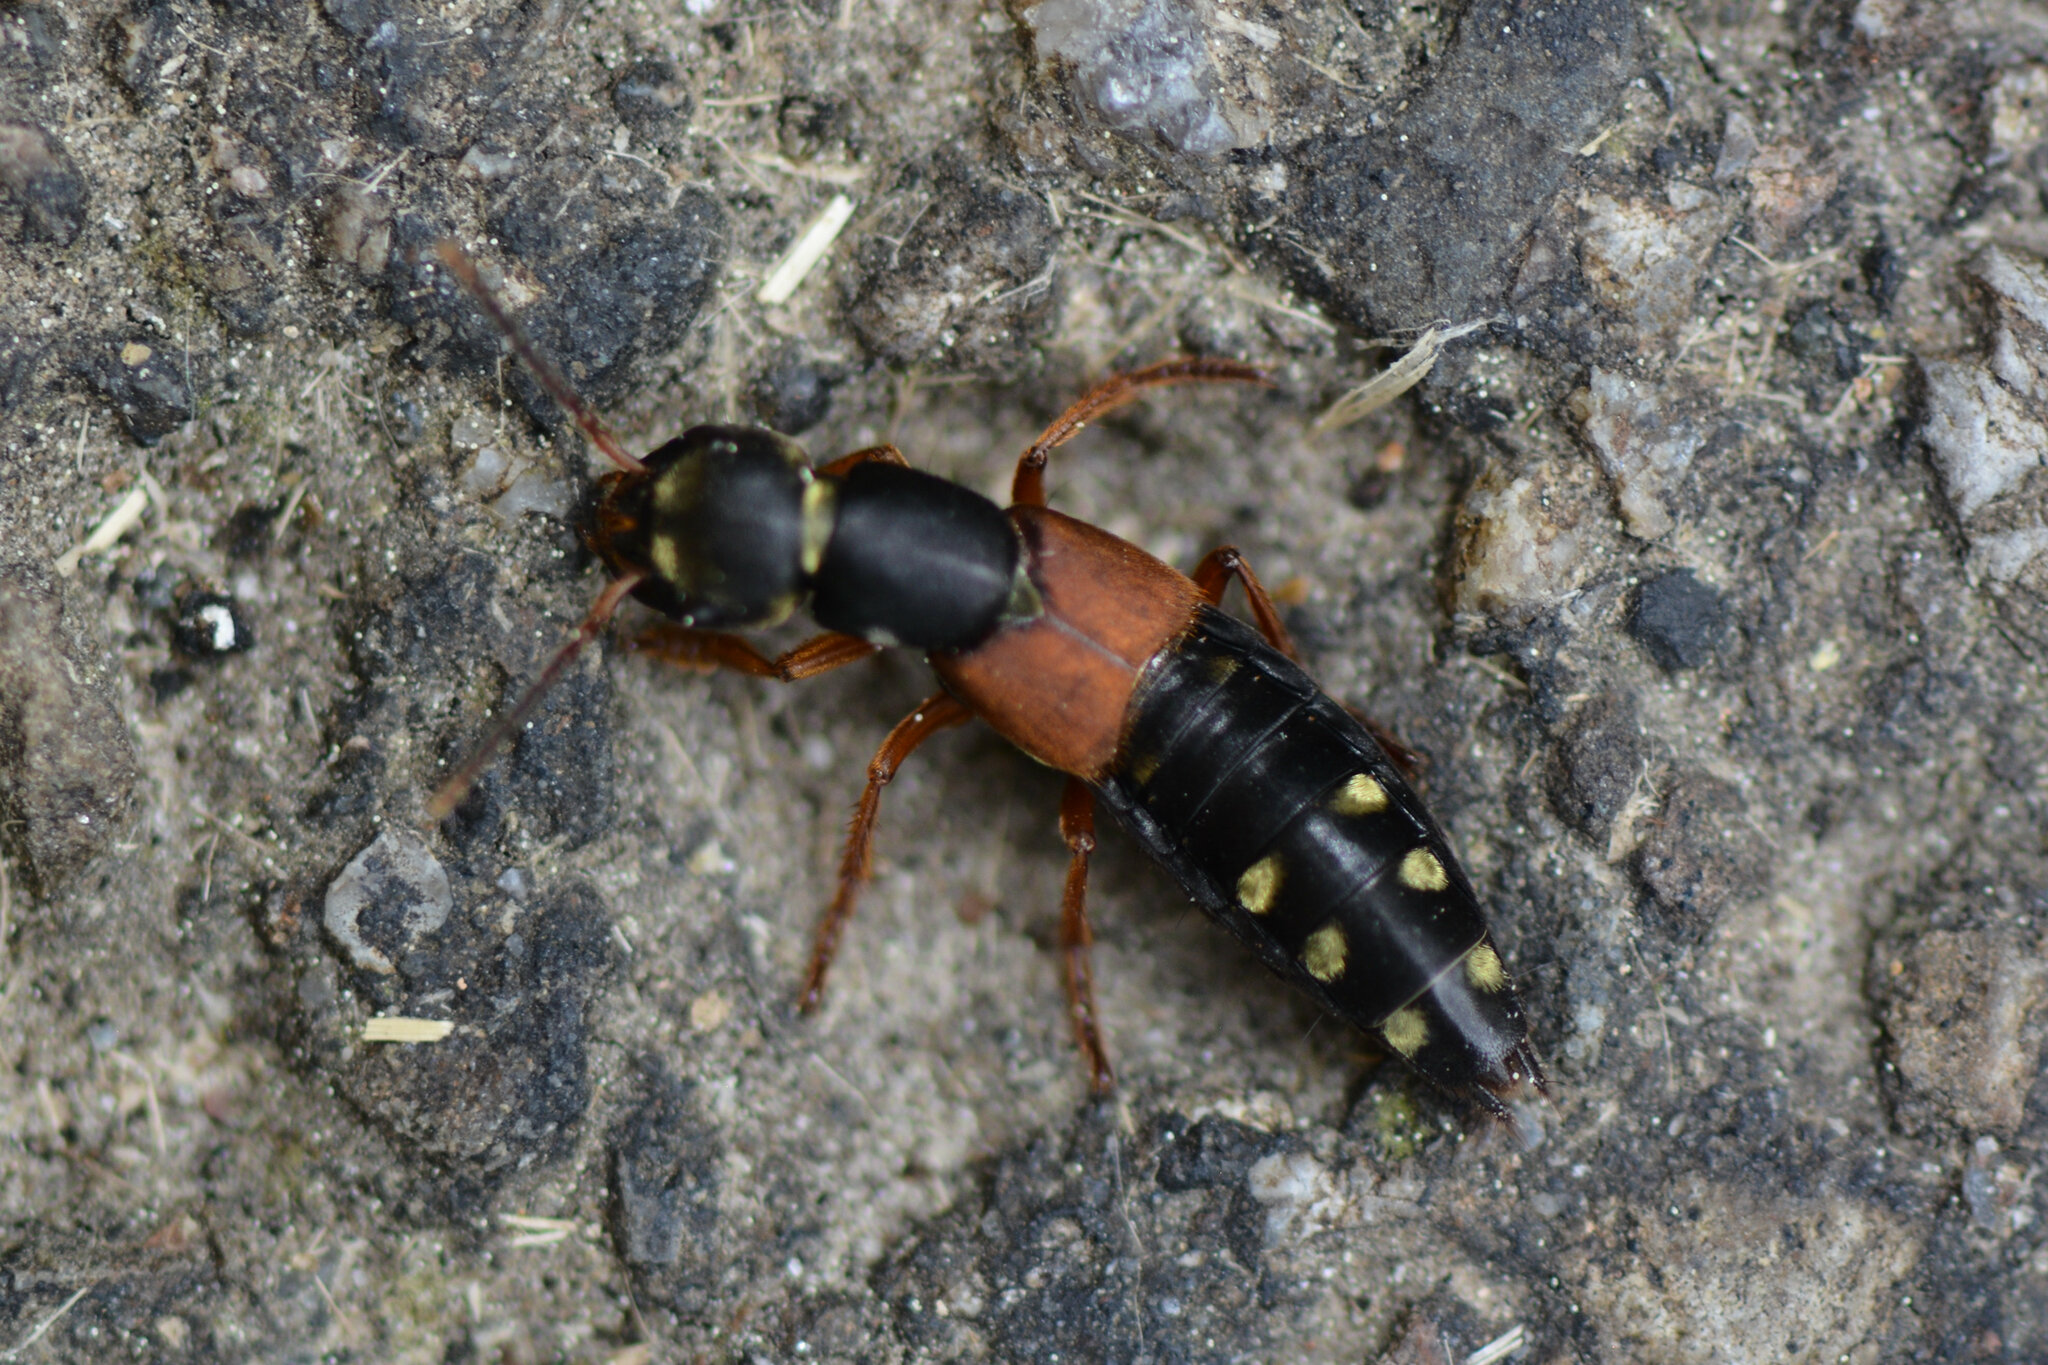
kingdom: Animalia
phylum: Arthropoda
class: Insecta
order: Coleoptera
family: Staphylinidae
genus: Staphylinus
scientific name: Staphylinus erythropterus
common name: Staph beetle
